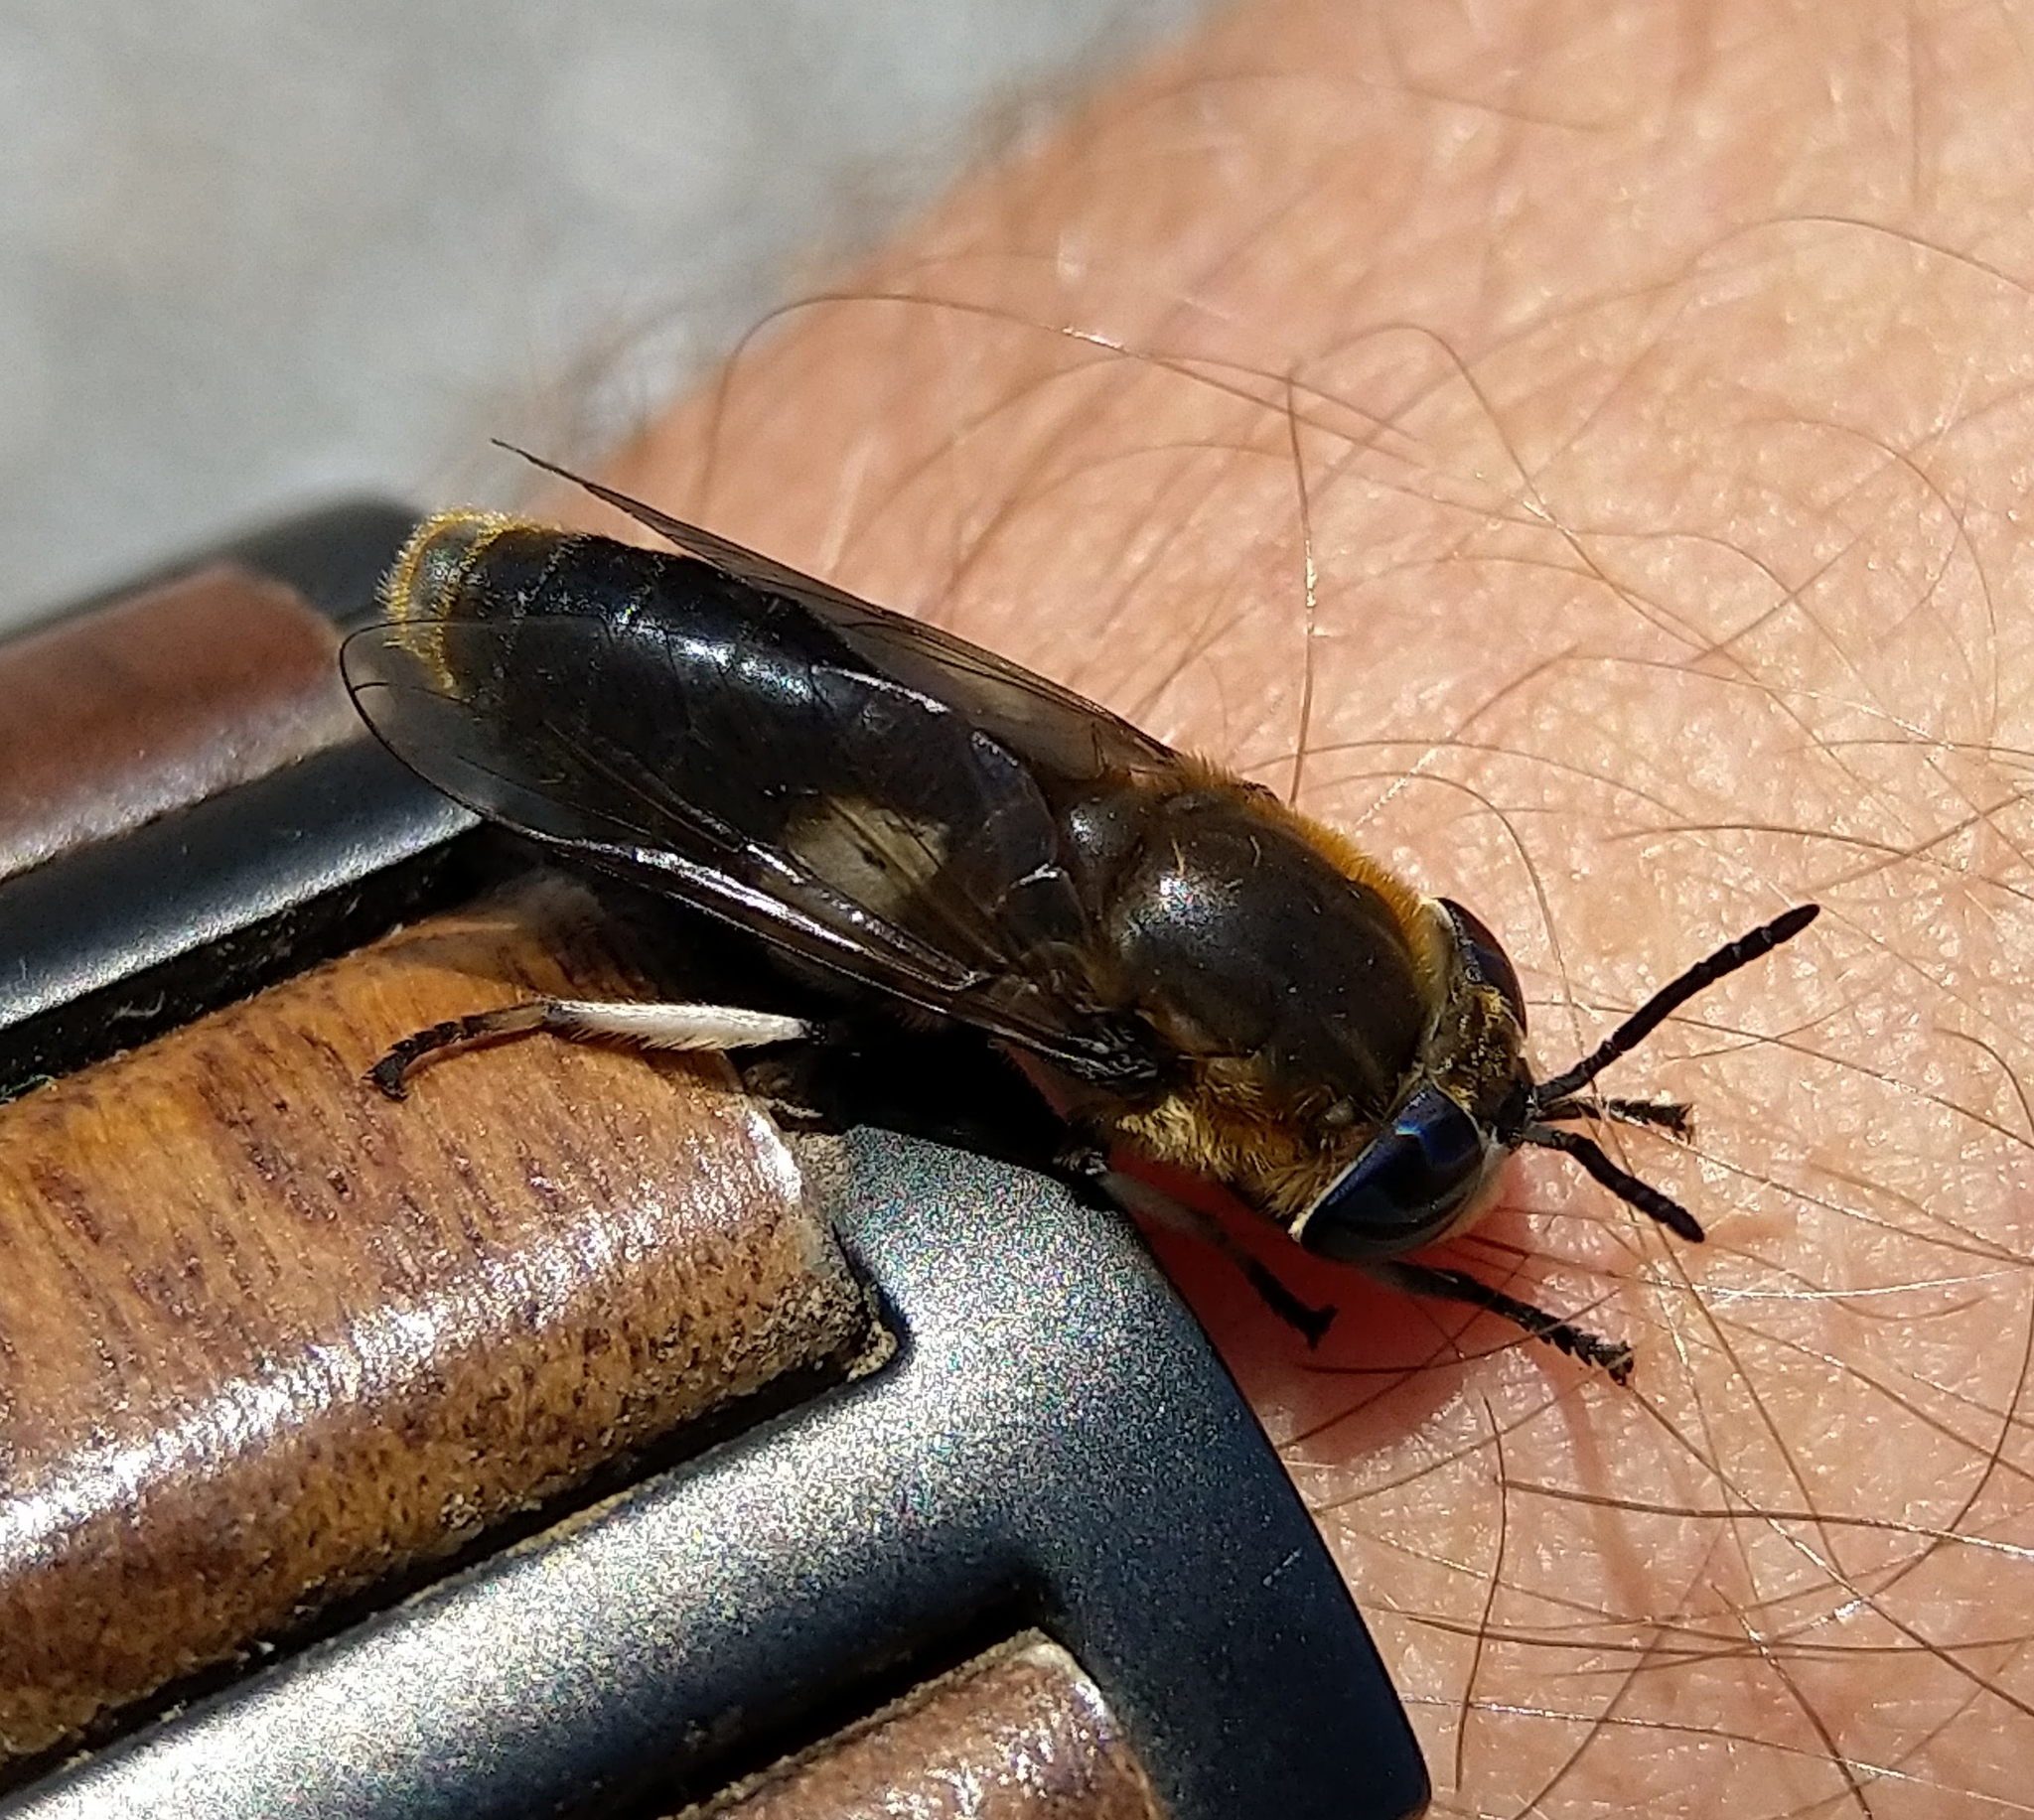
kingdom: Animalia
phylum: Arthropoda
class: Insecta
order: Diptera
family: Tabanidae
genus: Heptatoma
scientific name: Heptatoma pellucens
